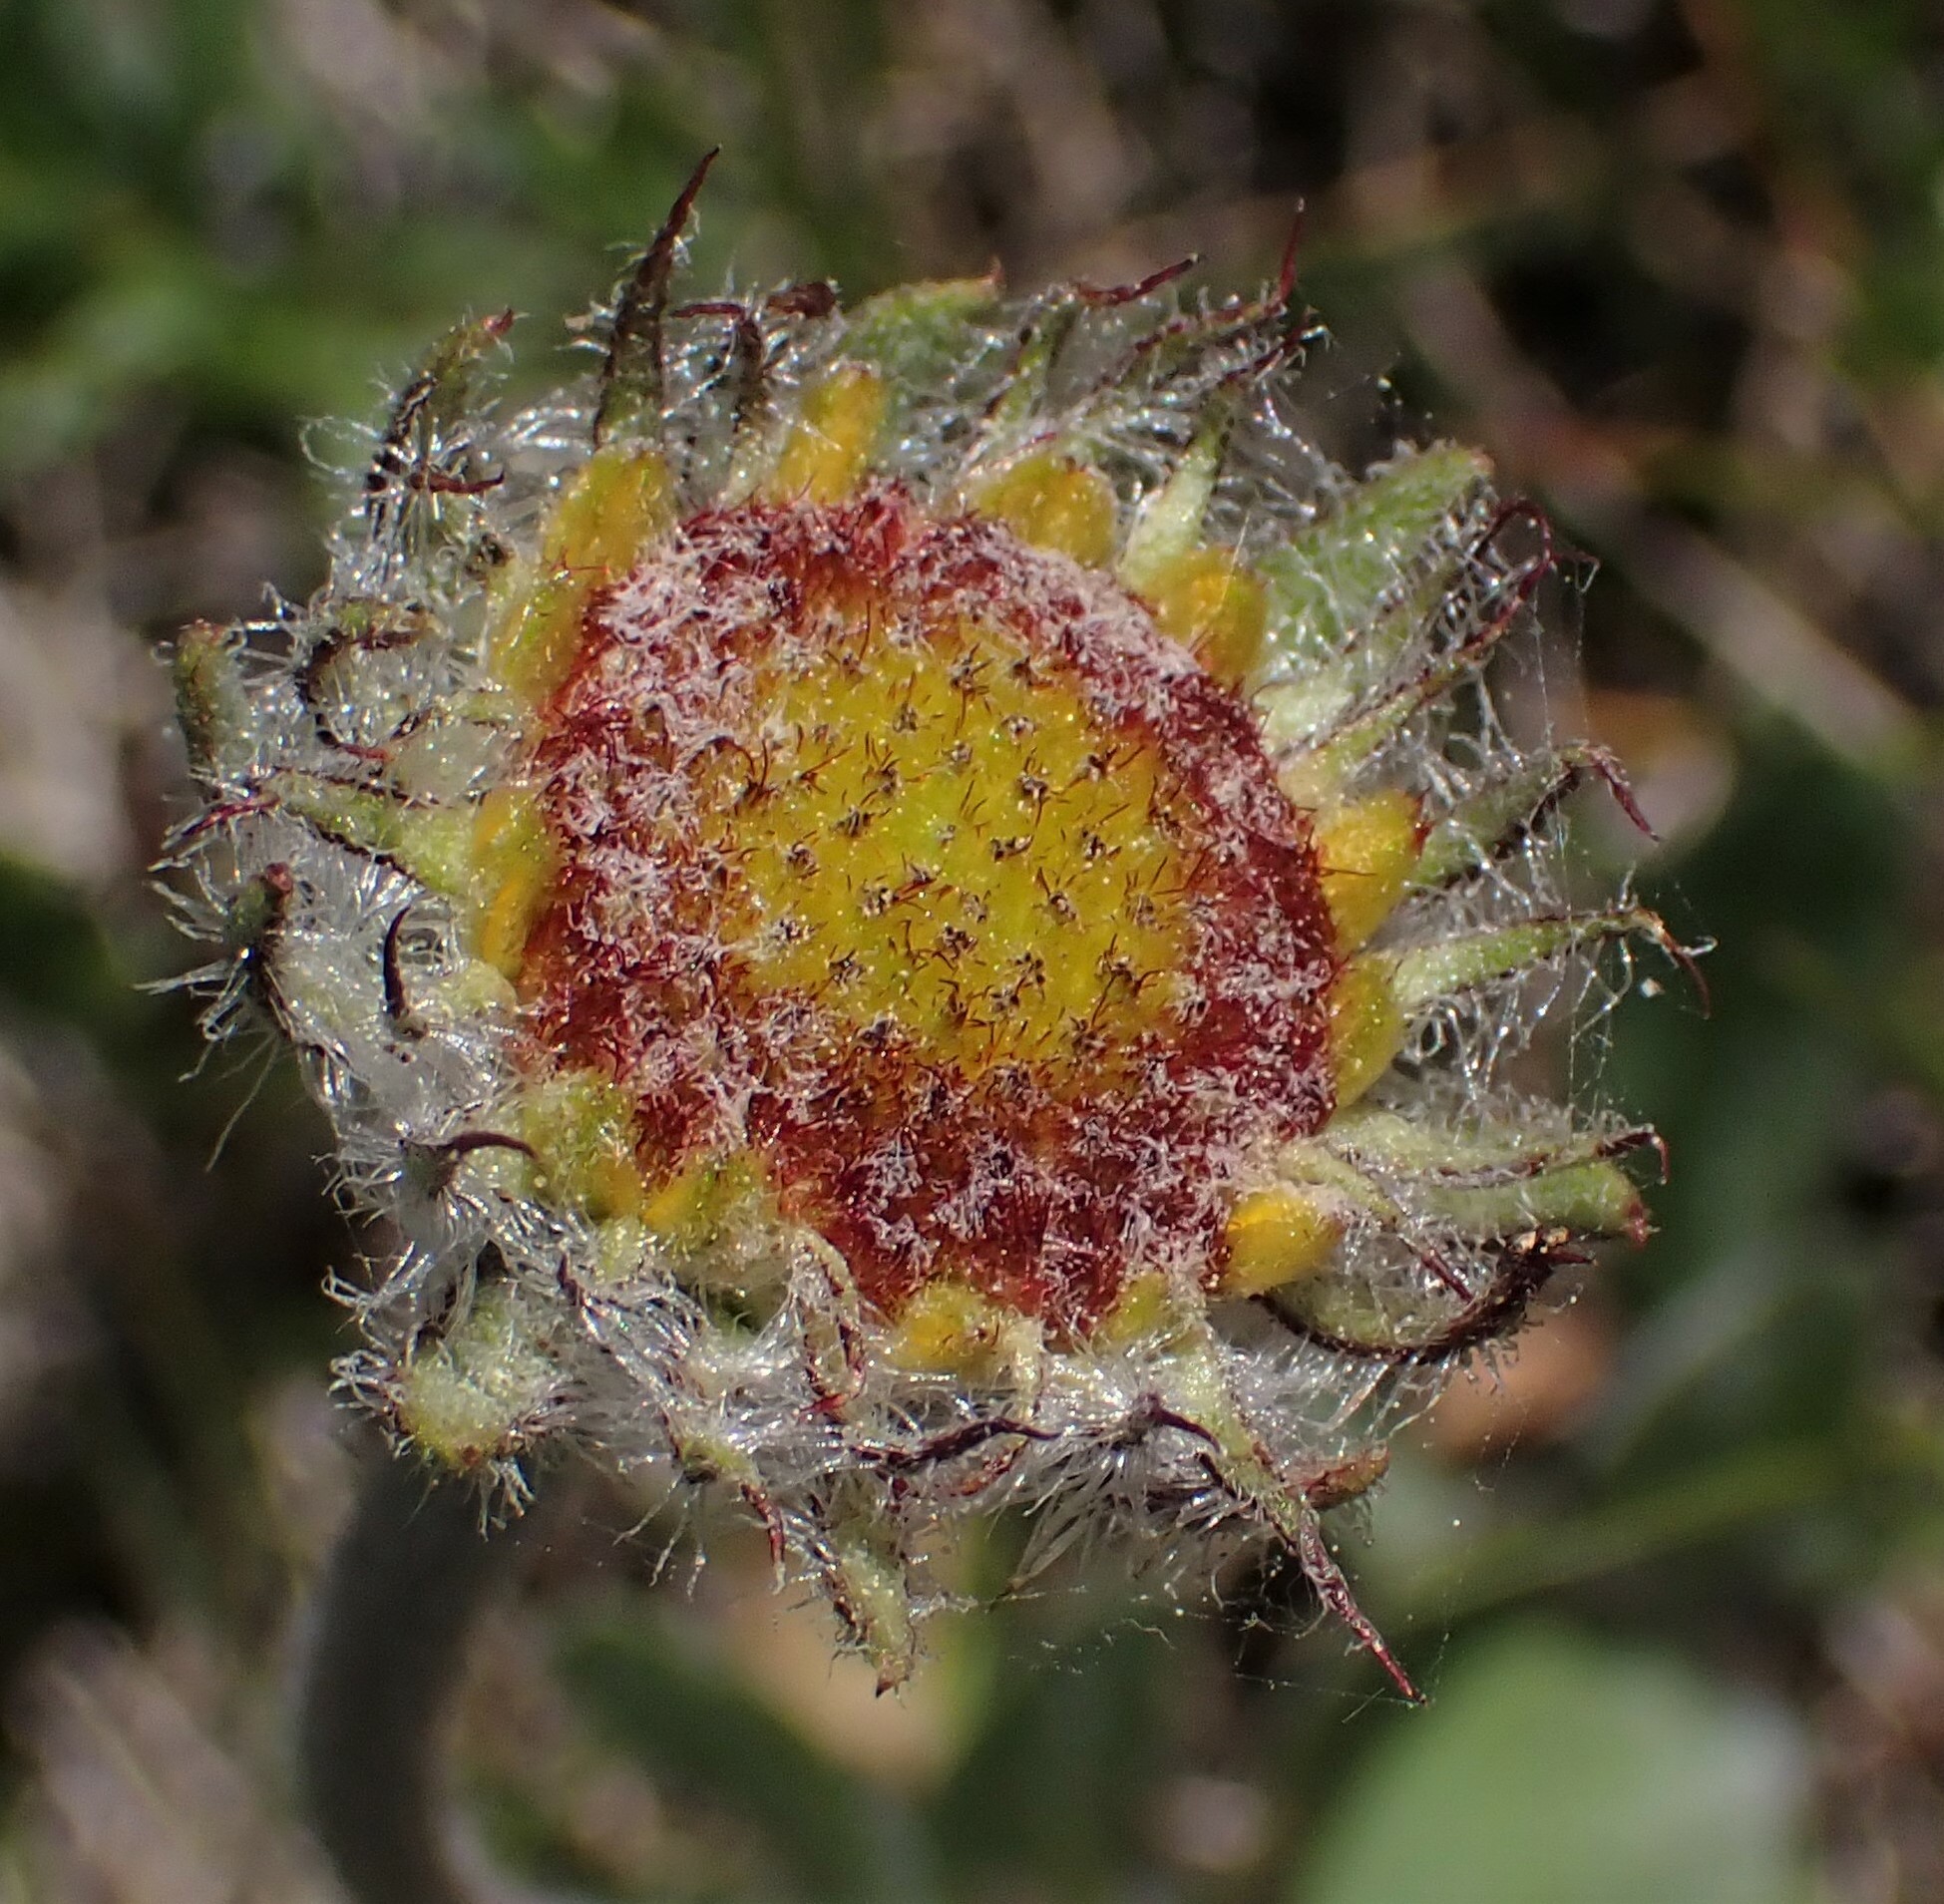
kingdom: Plantae
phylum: Tracheophyta
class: Magnoliopsida
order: Asterales
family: Asteraceae
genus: Gaillardia
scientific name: Gaillardia aristata
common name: Blanket-flower
